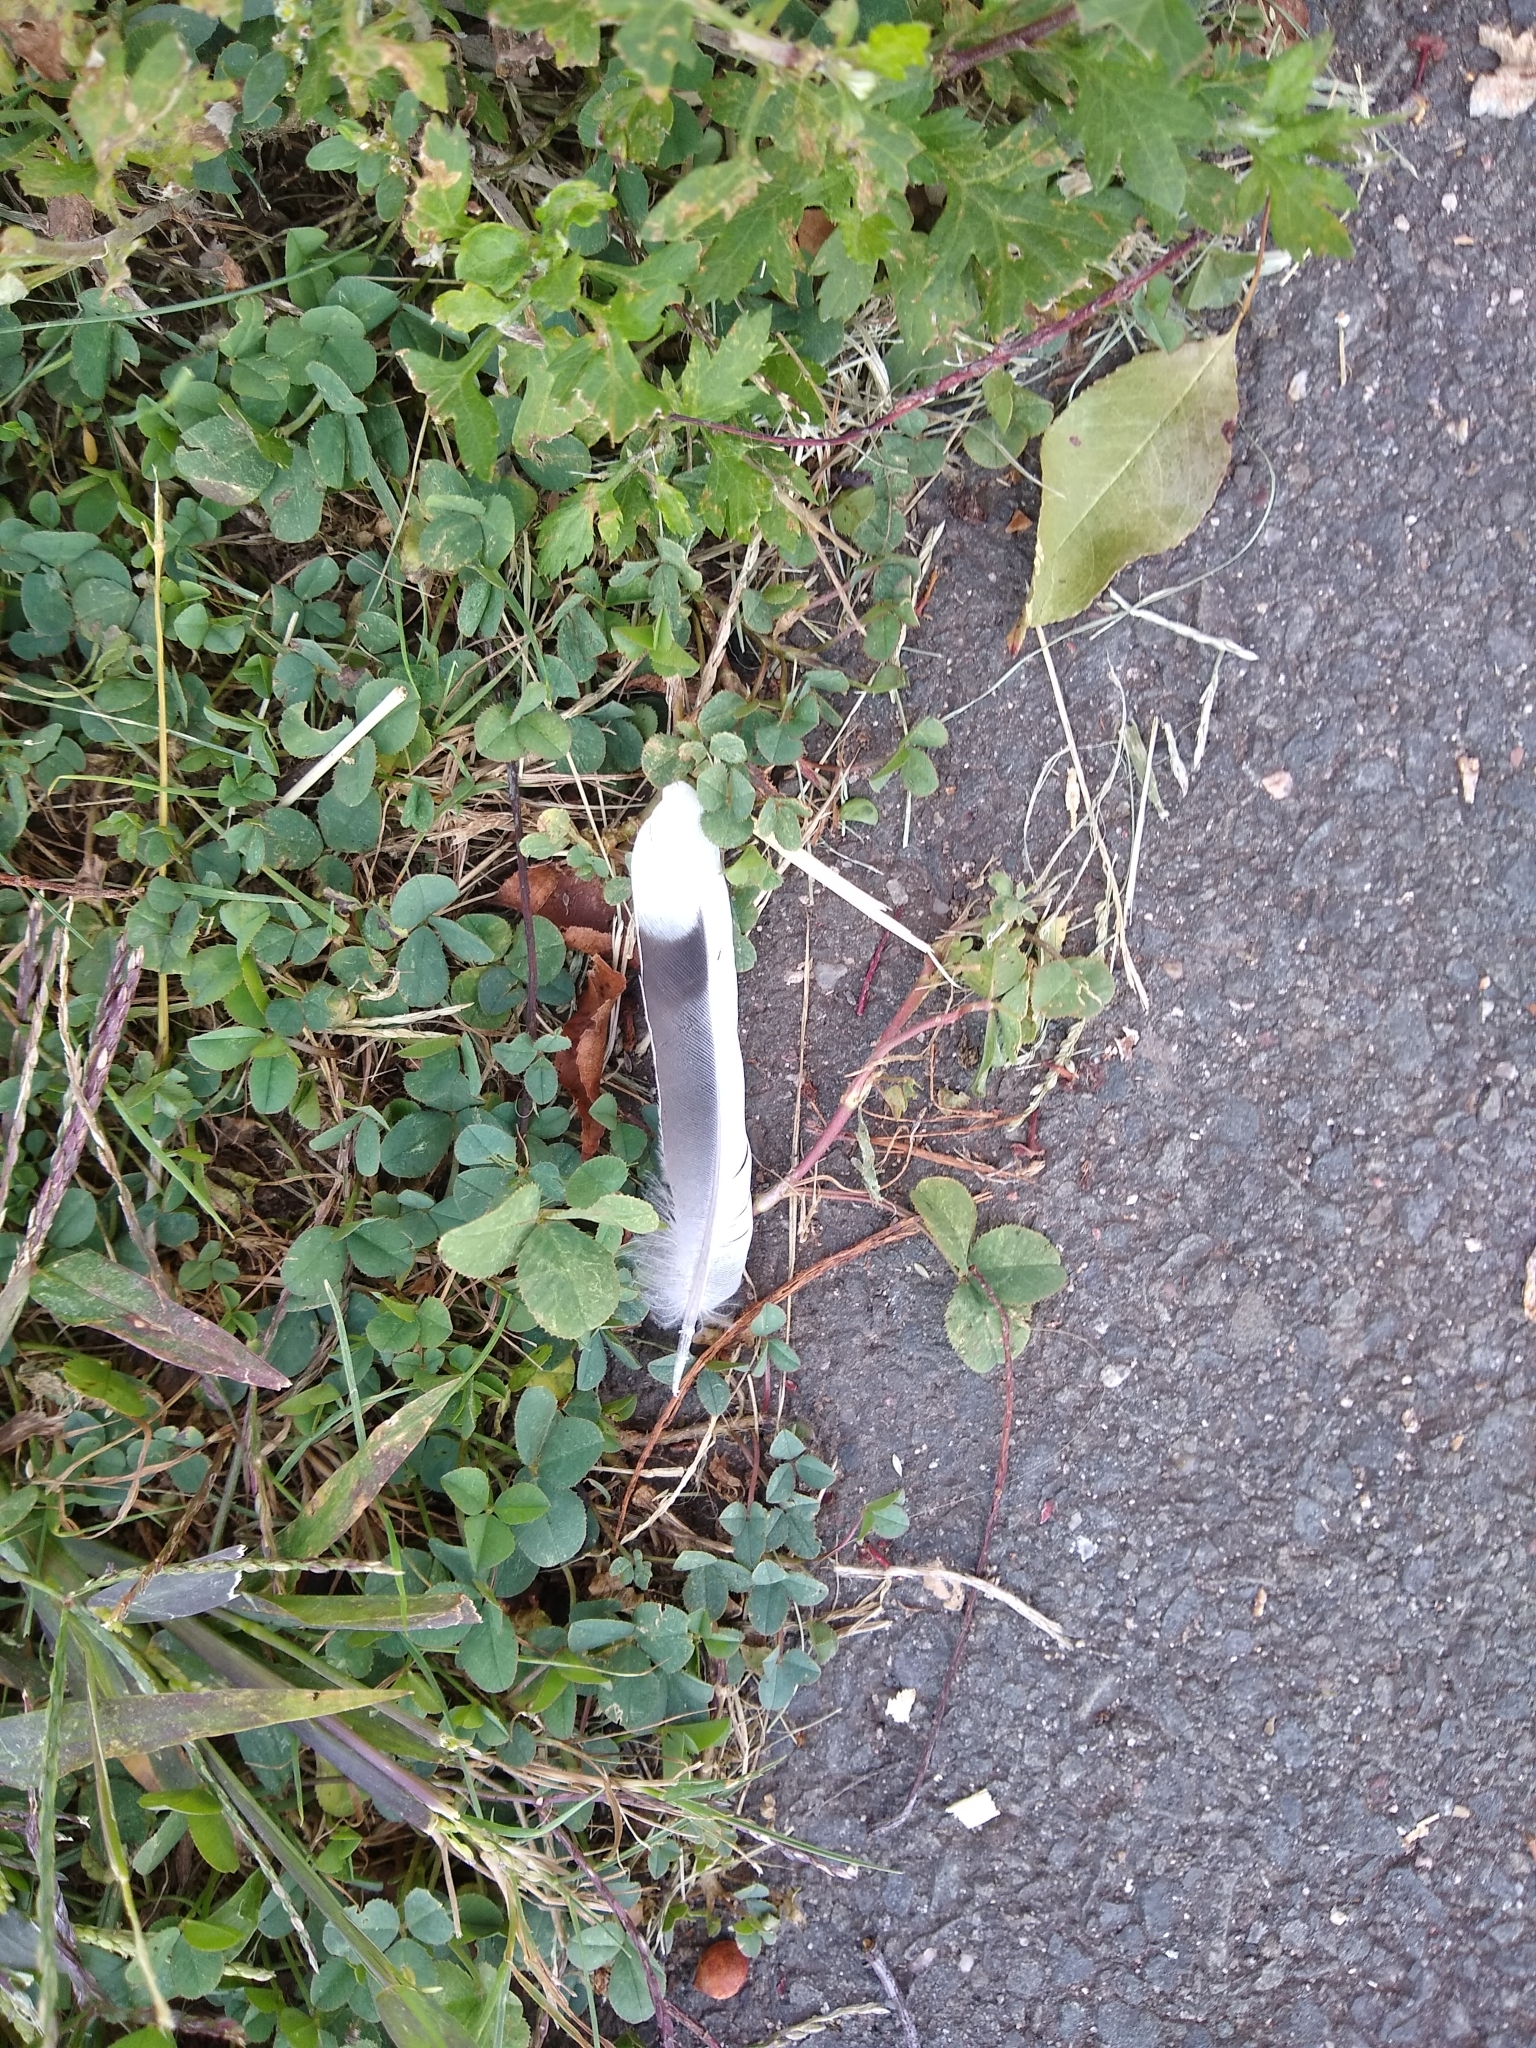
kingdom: Animalia
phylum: Chordata
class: Aves
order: Columbiformes
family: Columbidae
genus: Zenaida
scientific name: Zenaida macroura
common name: Mourning dove
